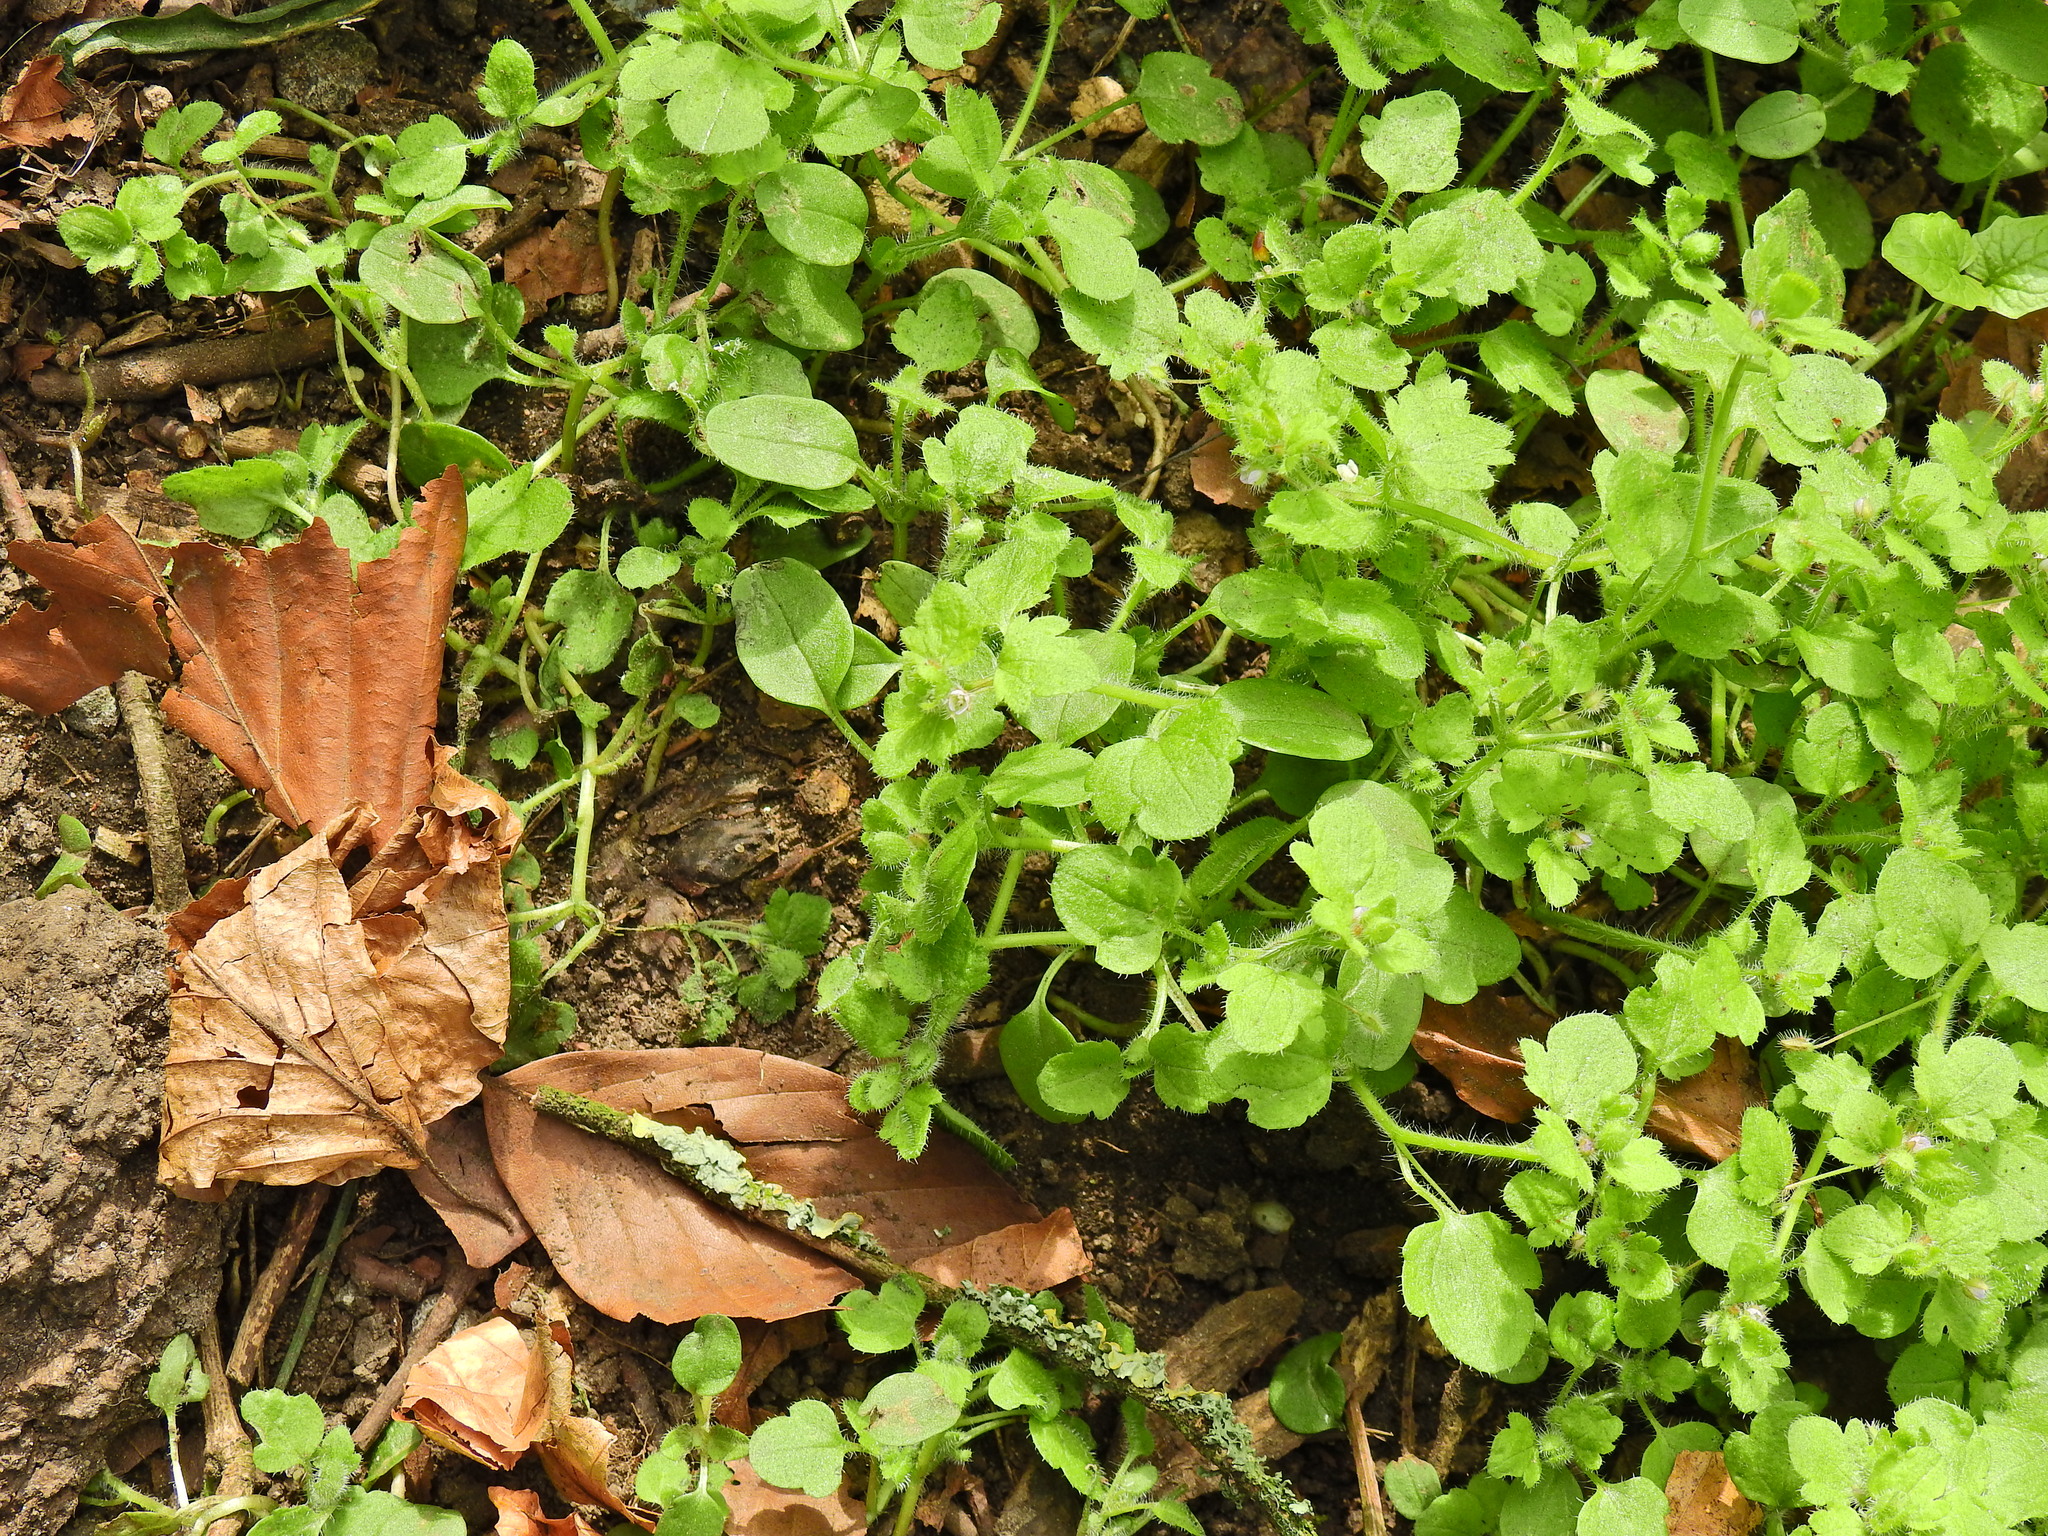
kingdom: Plantae
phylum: Tracheophyta
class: Magnoliopsida
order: Lamiales
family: Plantaginaceae
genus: Veronica
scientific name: Veronica sublobata
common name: False ivy-leaved speedwell
